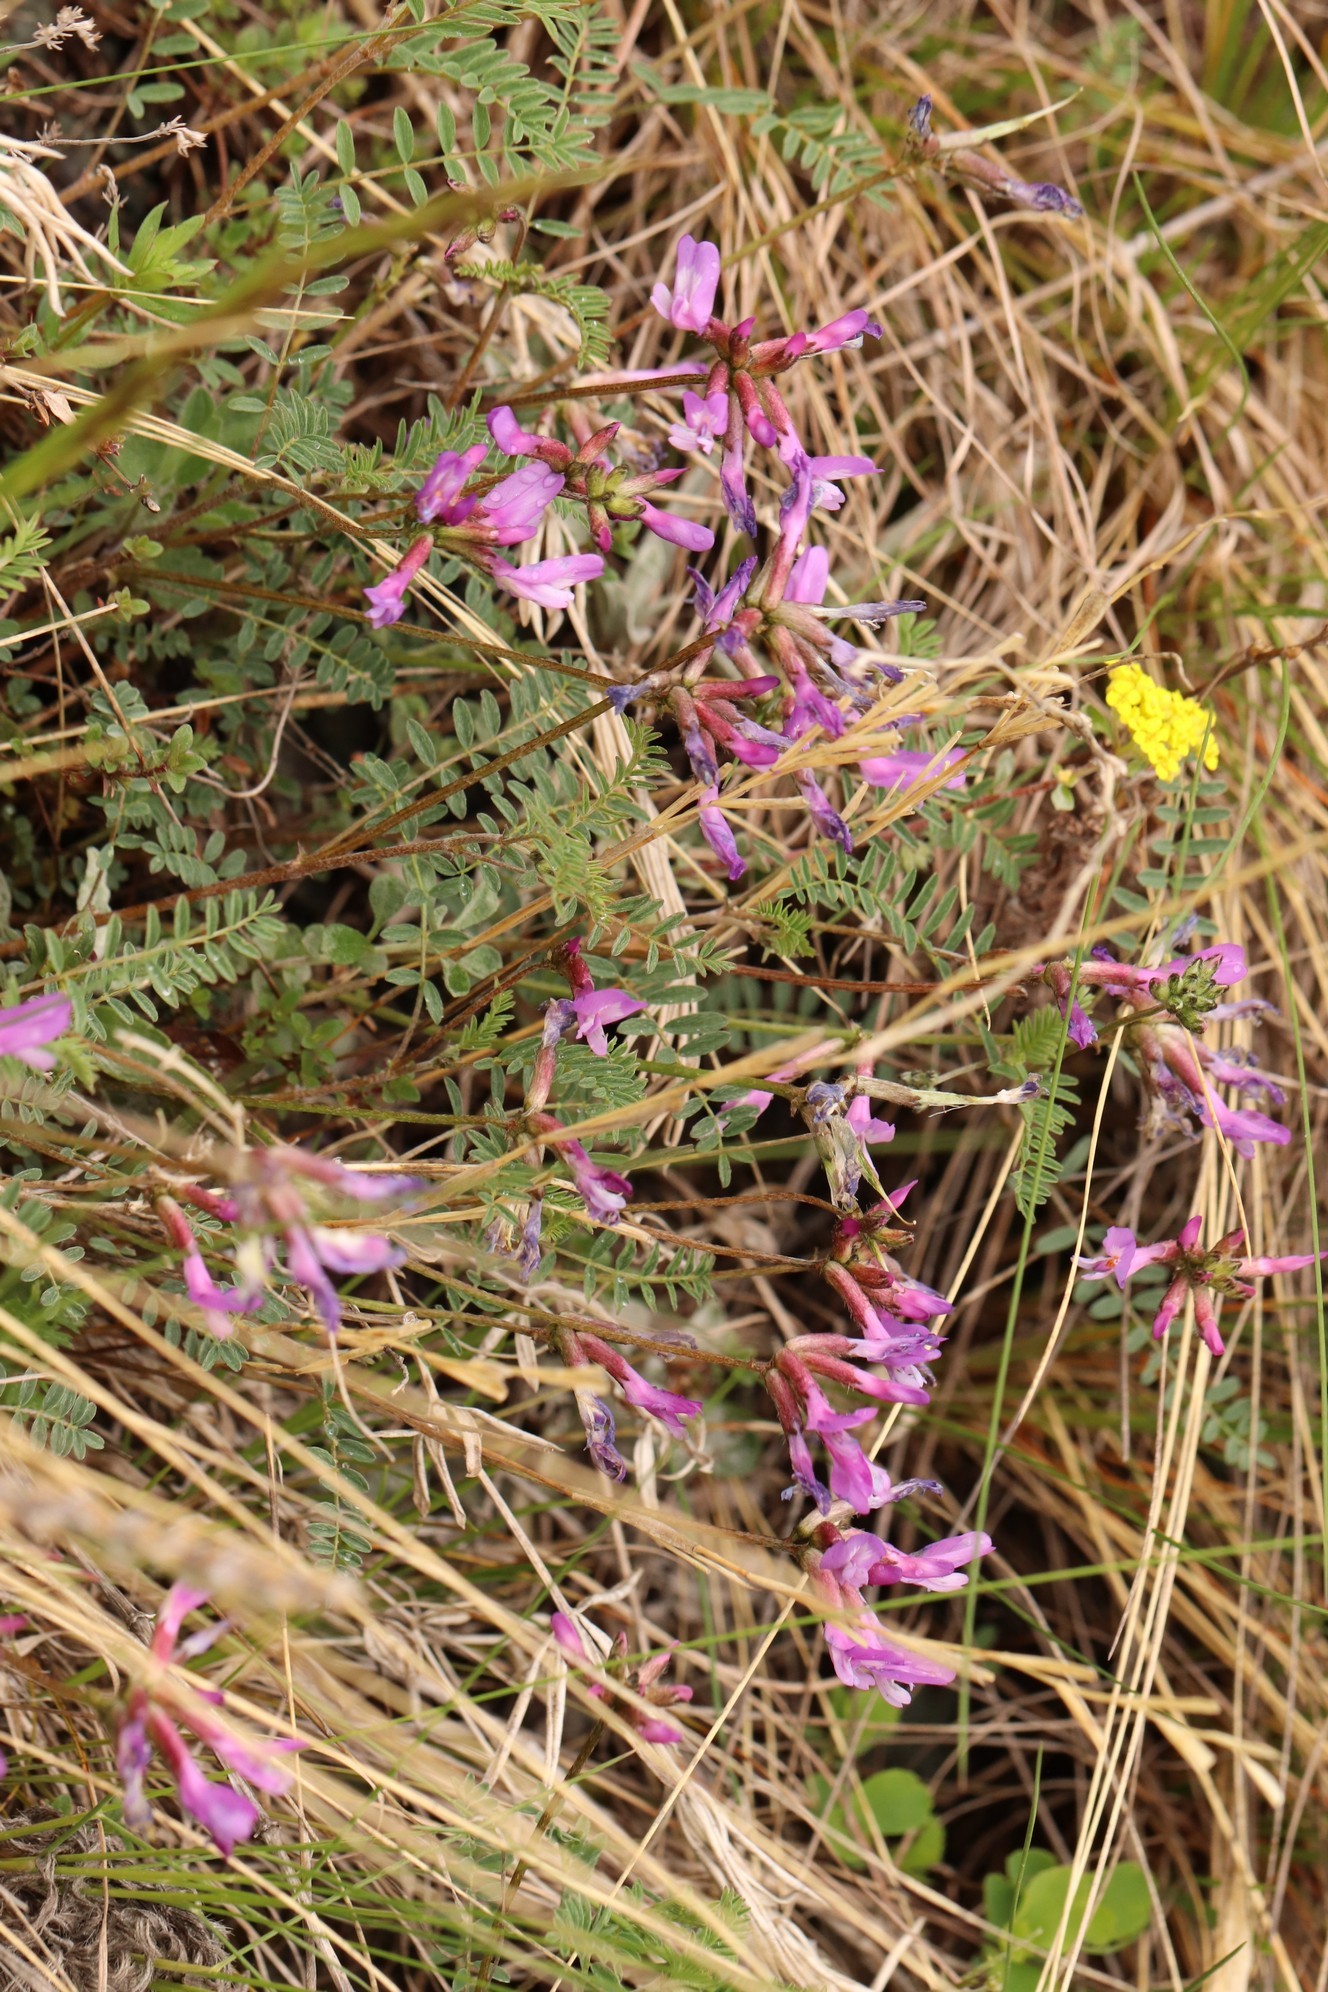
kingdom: Plantae
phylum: Tracheophyta
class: Magnoliopsida
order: Fabales
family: Fabaceae
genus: Astragalus
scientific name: Astragalus ceratoides
